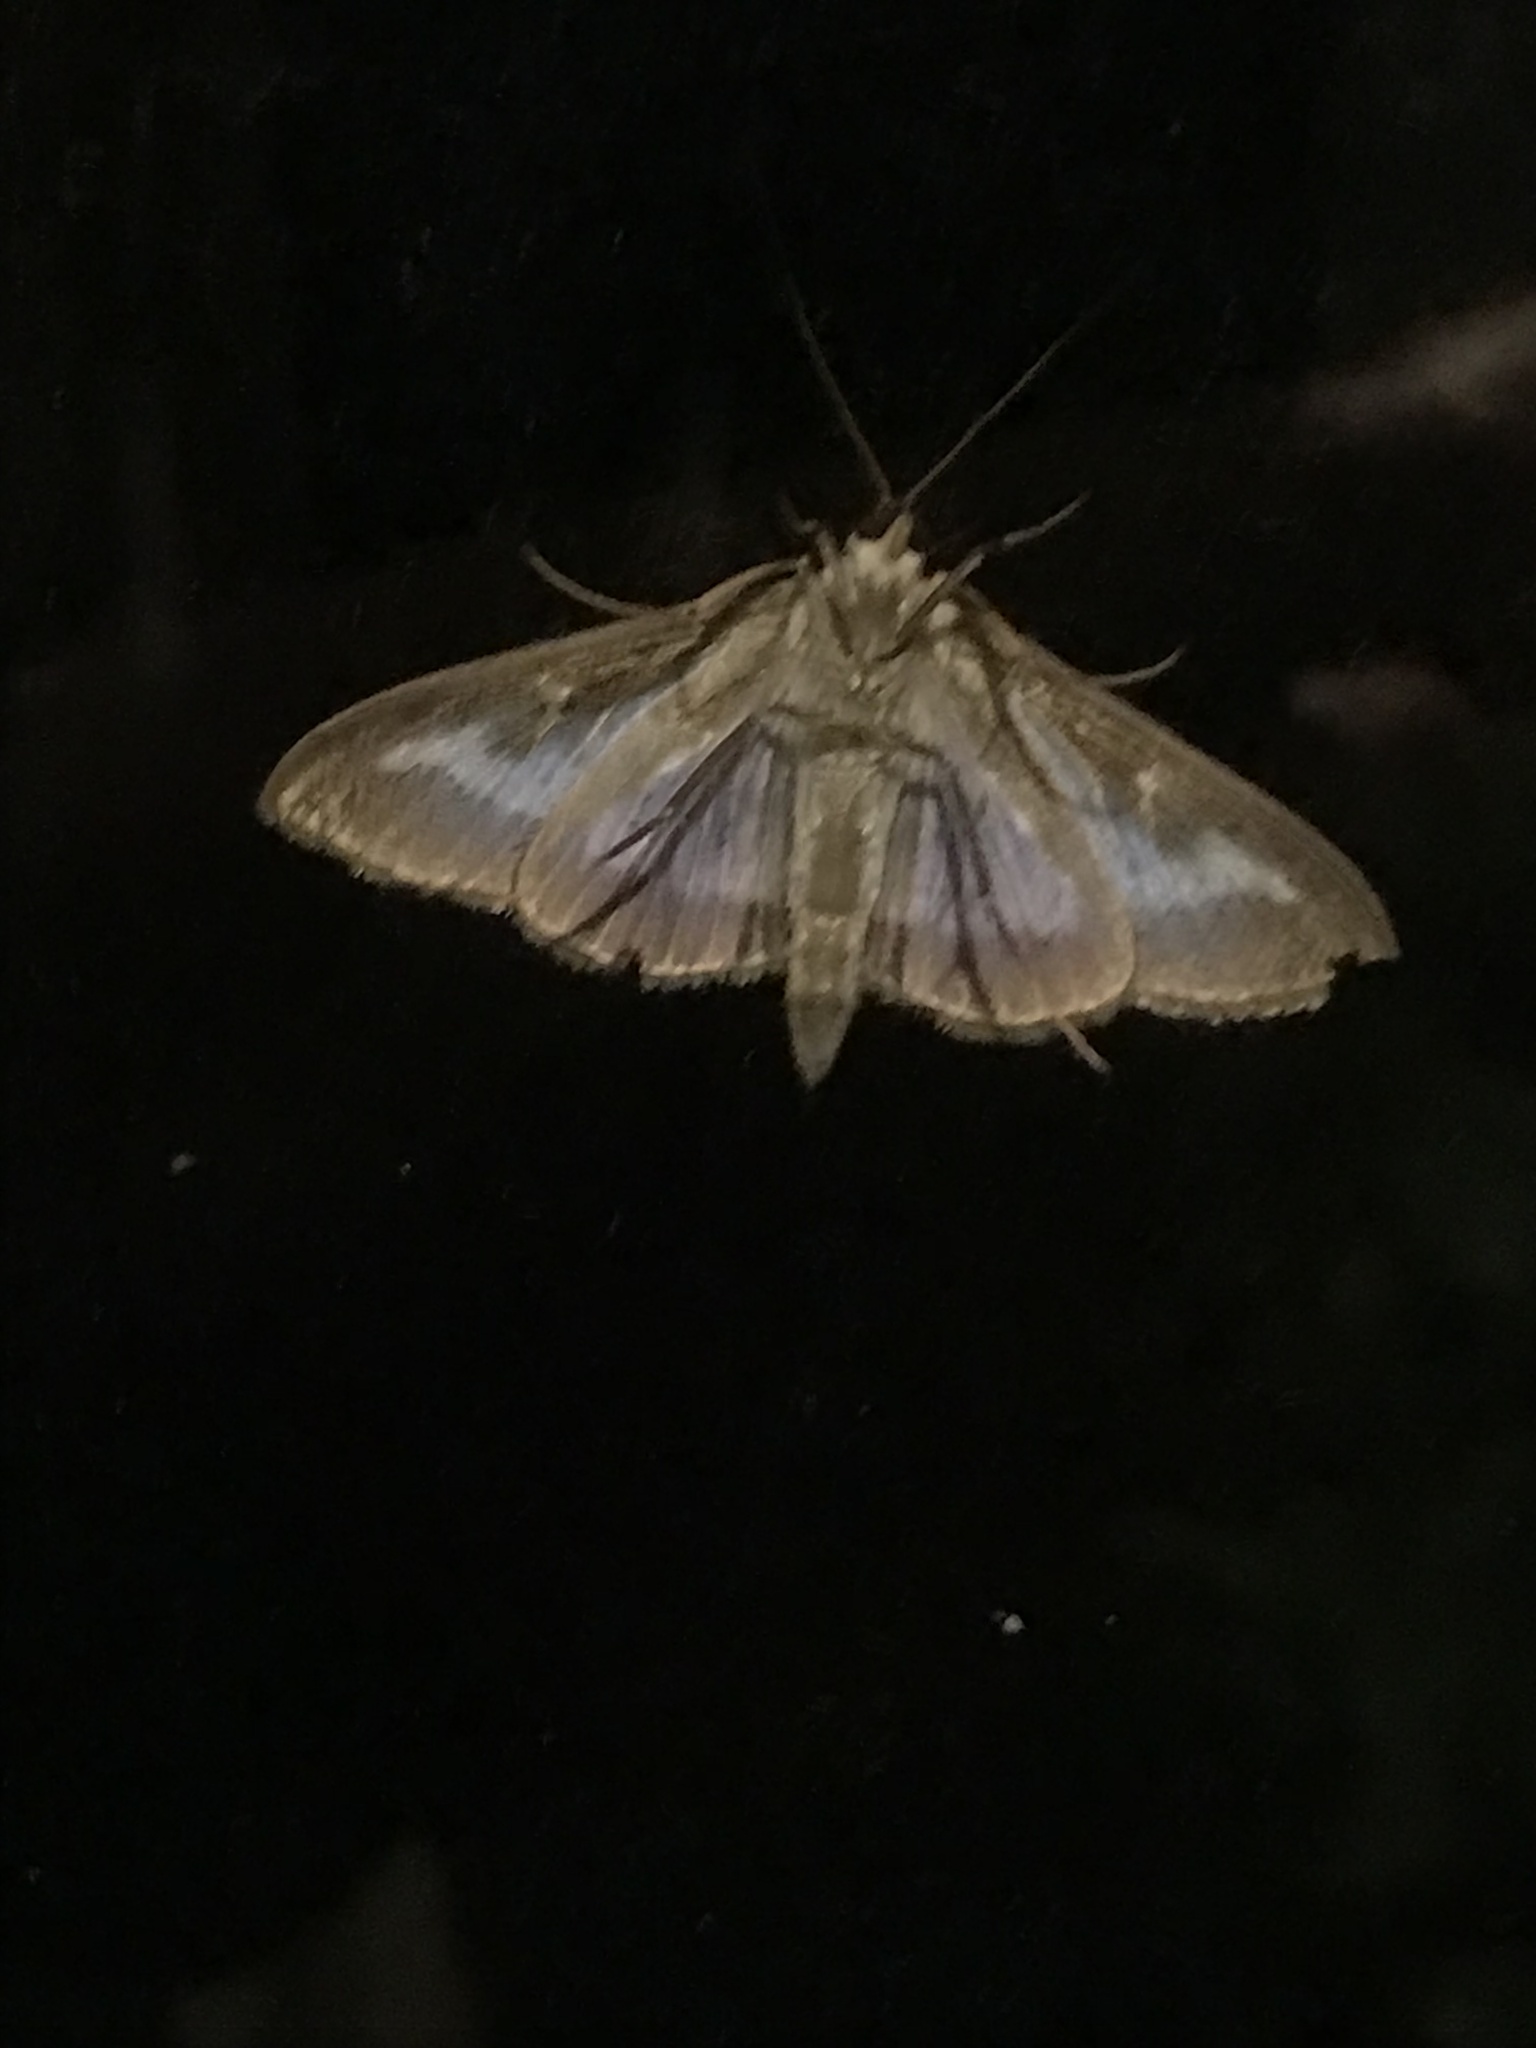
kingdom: Animalia
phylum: Arthropoda
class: Insecta
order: Lepidoptera
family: Crambidae
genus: Cydalima
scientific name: Cydalima perspectalis
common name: Box tree moth
